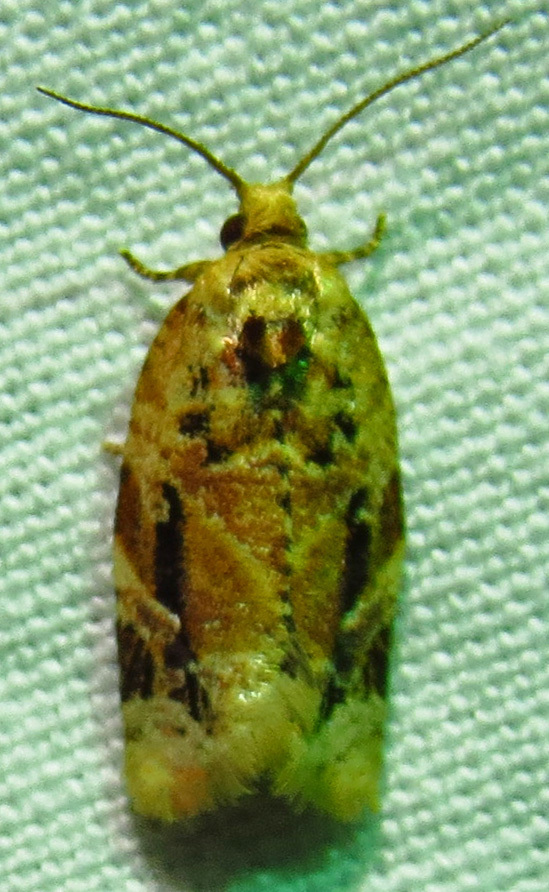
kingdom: Animalia
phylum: Arthropoda
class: Insecta
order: Lepidoptera
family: Tortricidae
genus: Argyrotaenia
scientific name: Argyrotaenia velutinana
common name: Red-banded leafroller moth
